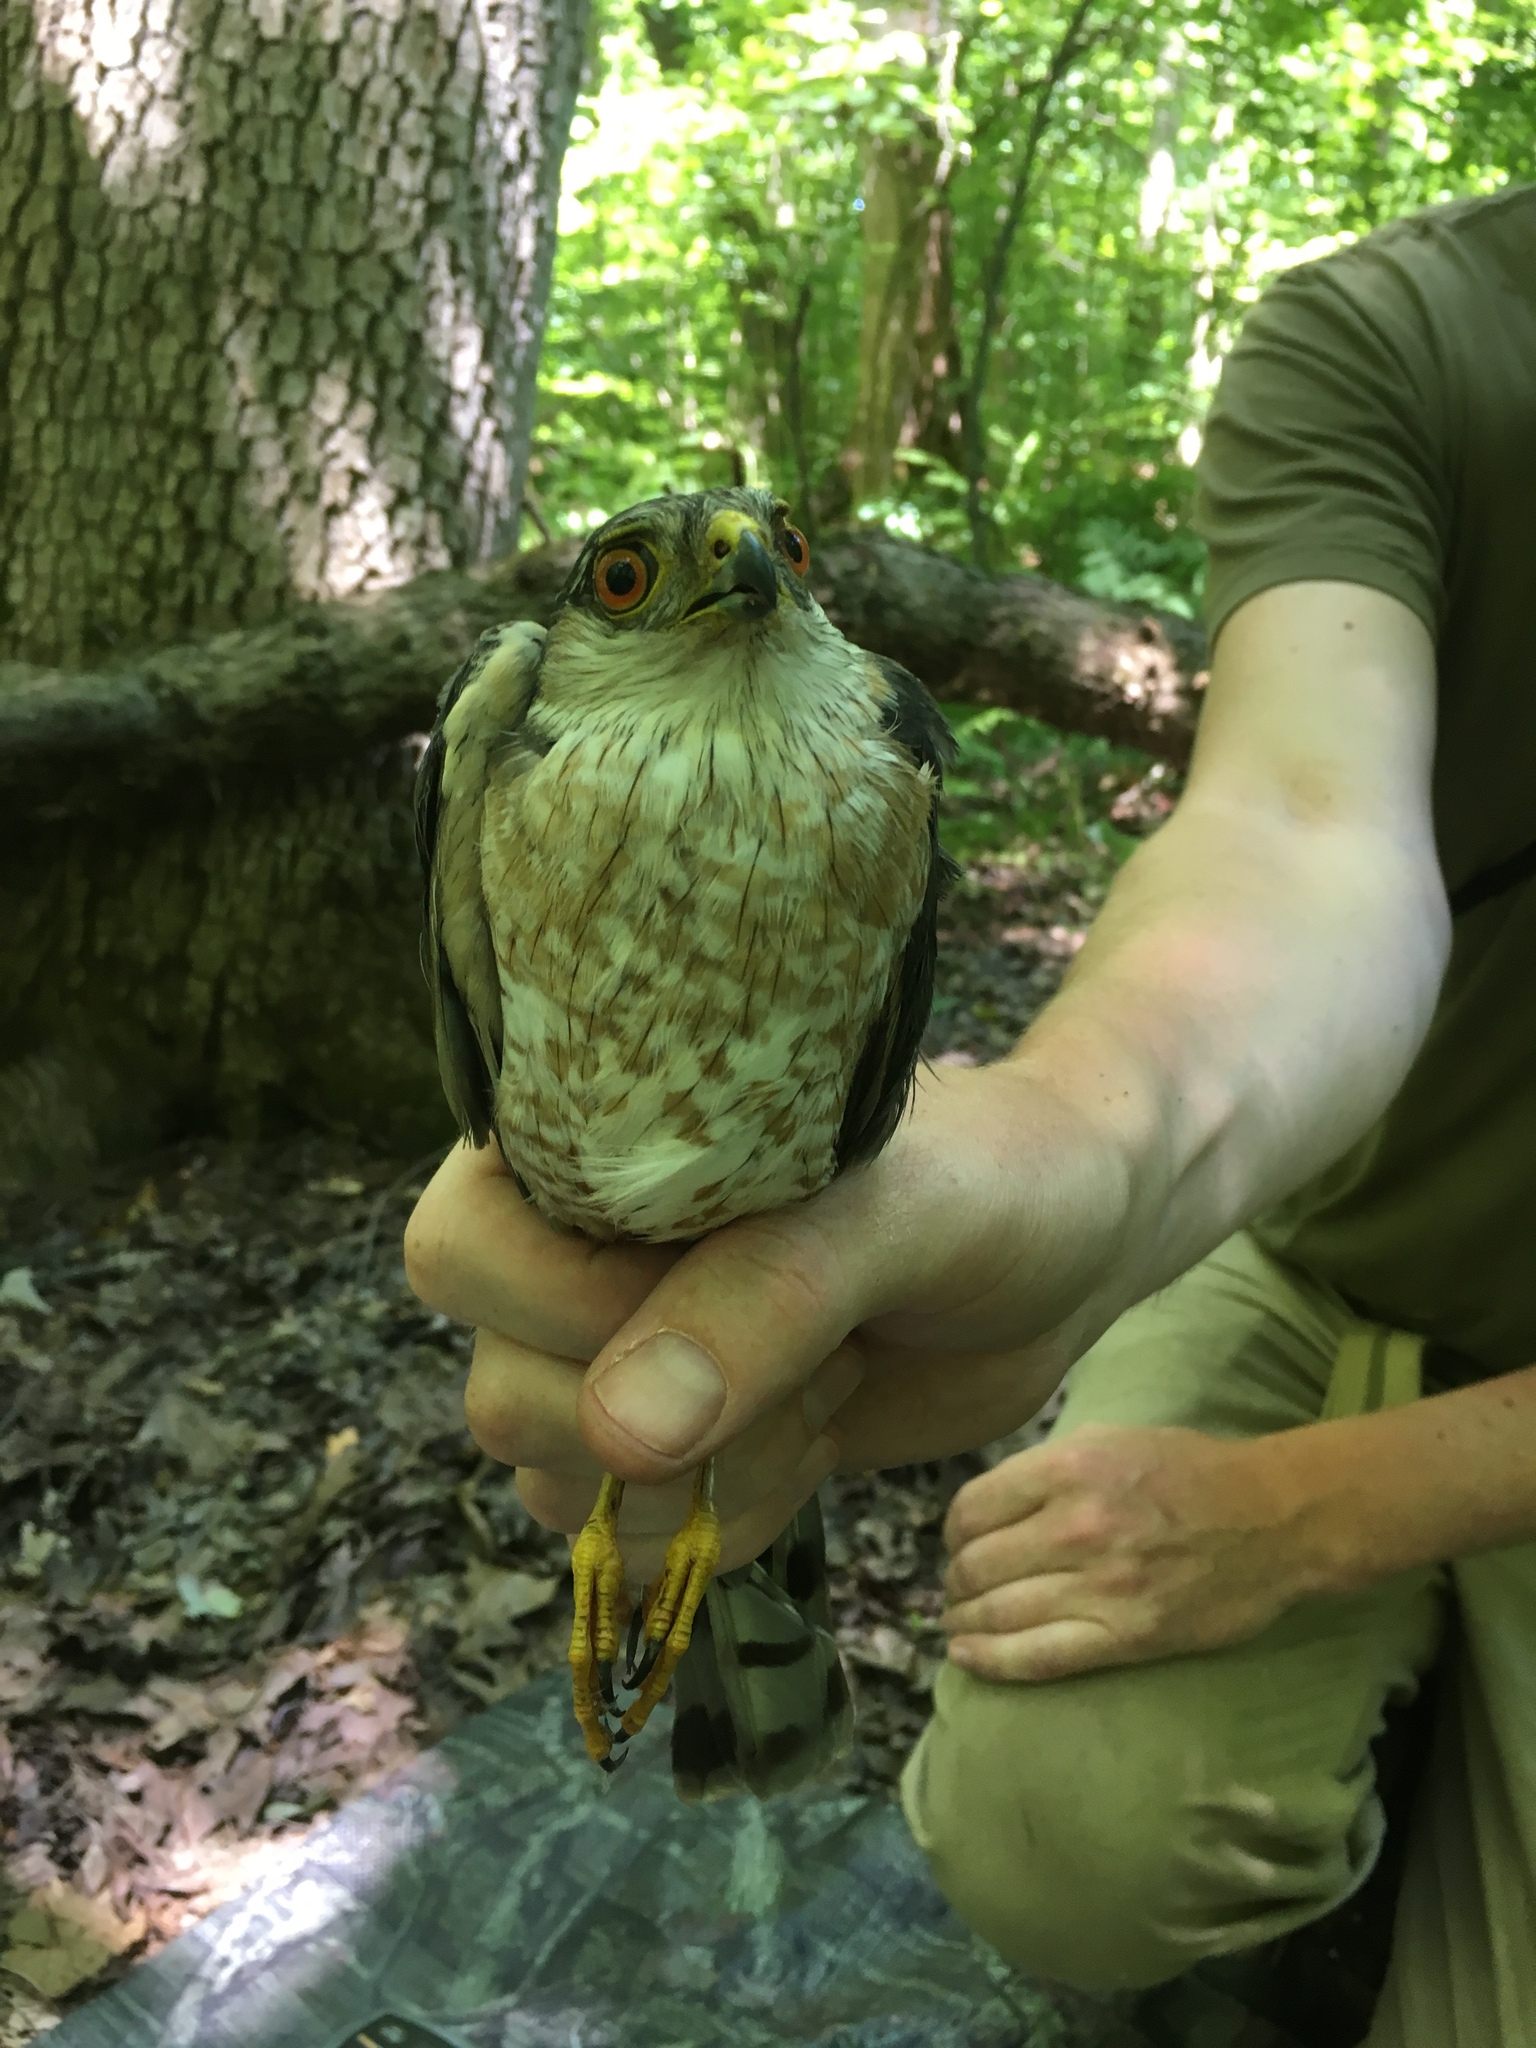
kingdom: Animalia
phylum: Chordata
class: Aves
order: Accipitriformes
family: Accipitridae
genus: Accipiter
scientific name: Accipiter striatus
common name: Sharp-shinned hawk
